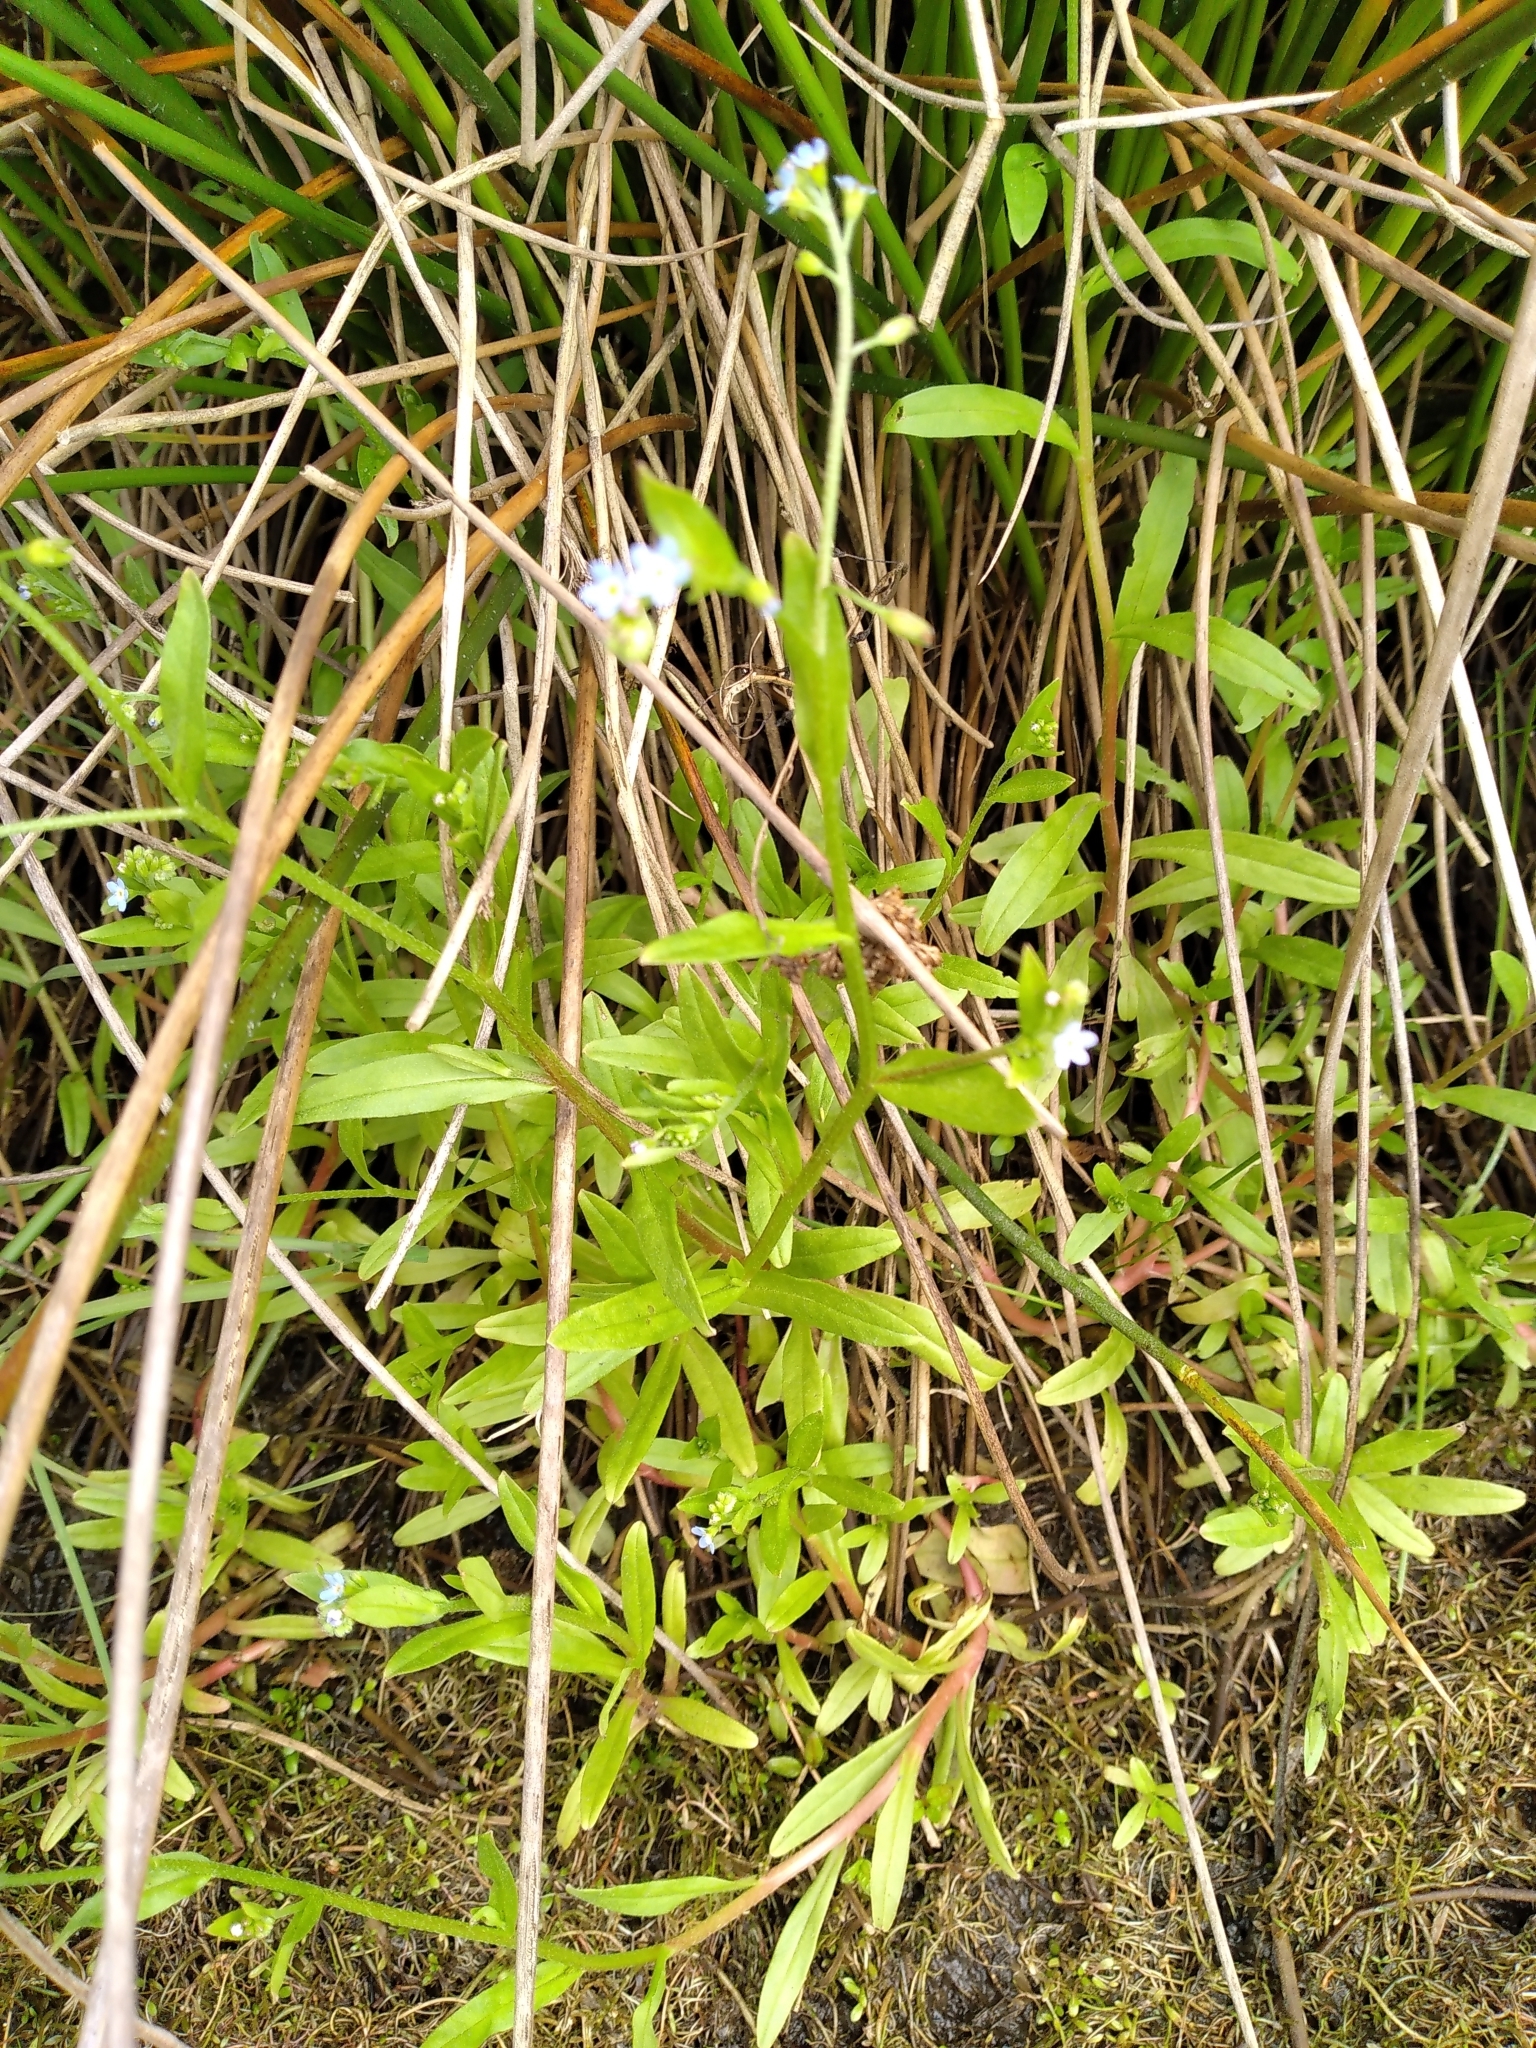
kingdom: Plantae
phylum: Tracheophyta
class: Magnoliopsida
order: Boraginales
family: Boraginaceae
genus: Myosotis
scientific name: Myosotis scorpioides
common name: Water forget-me-not
